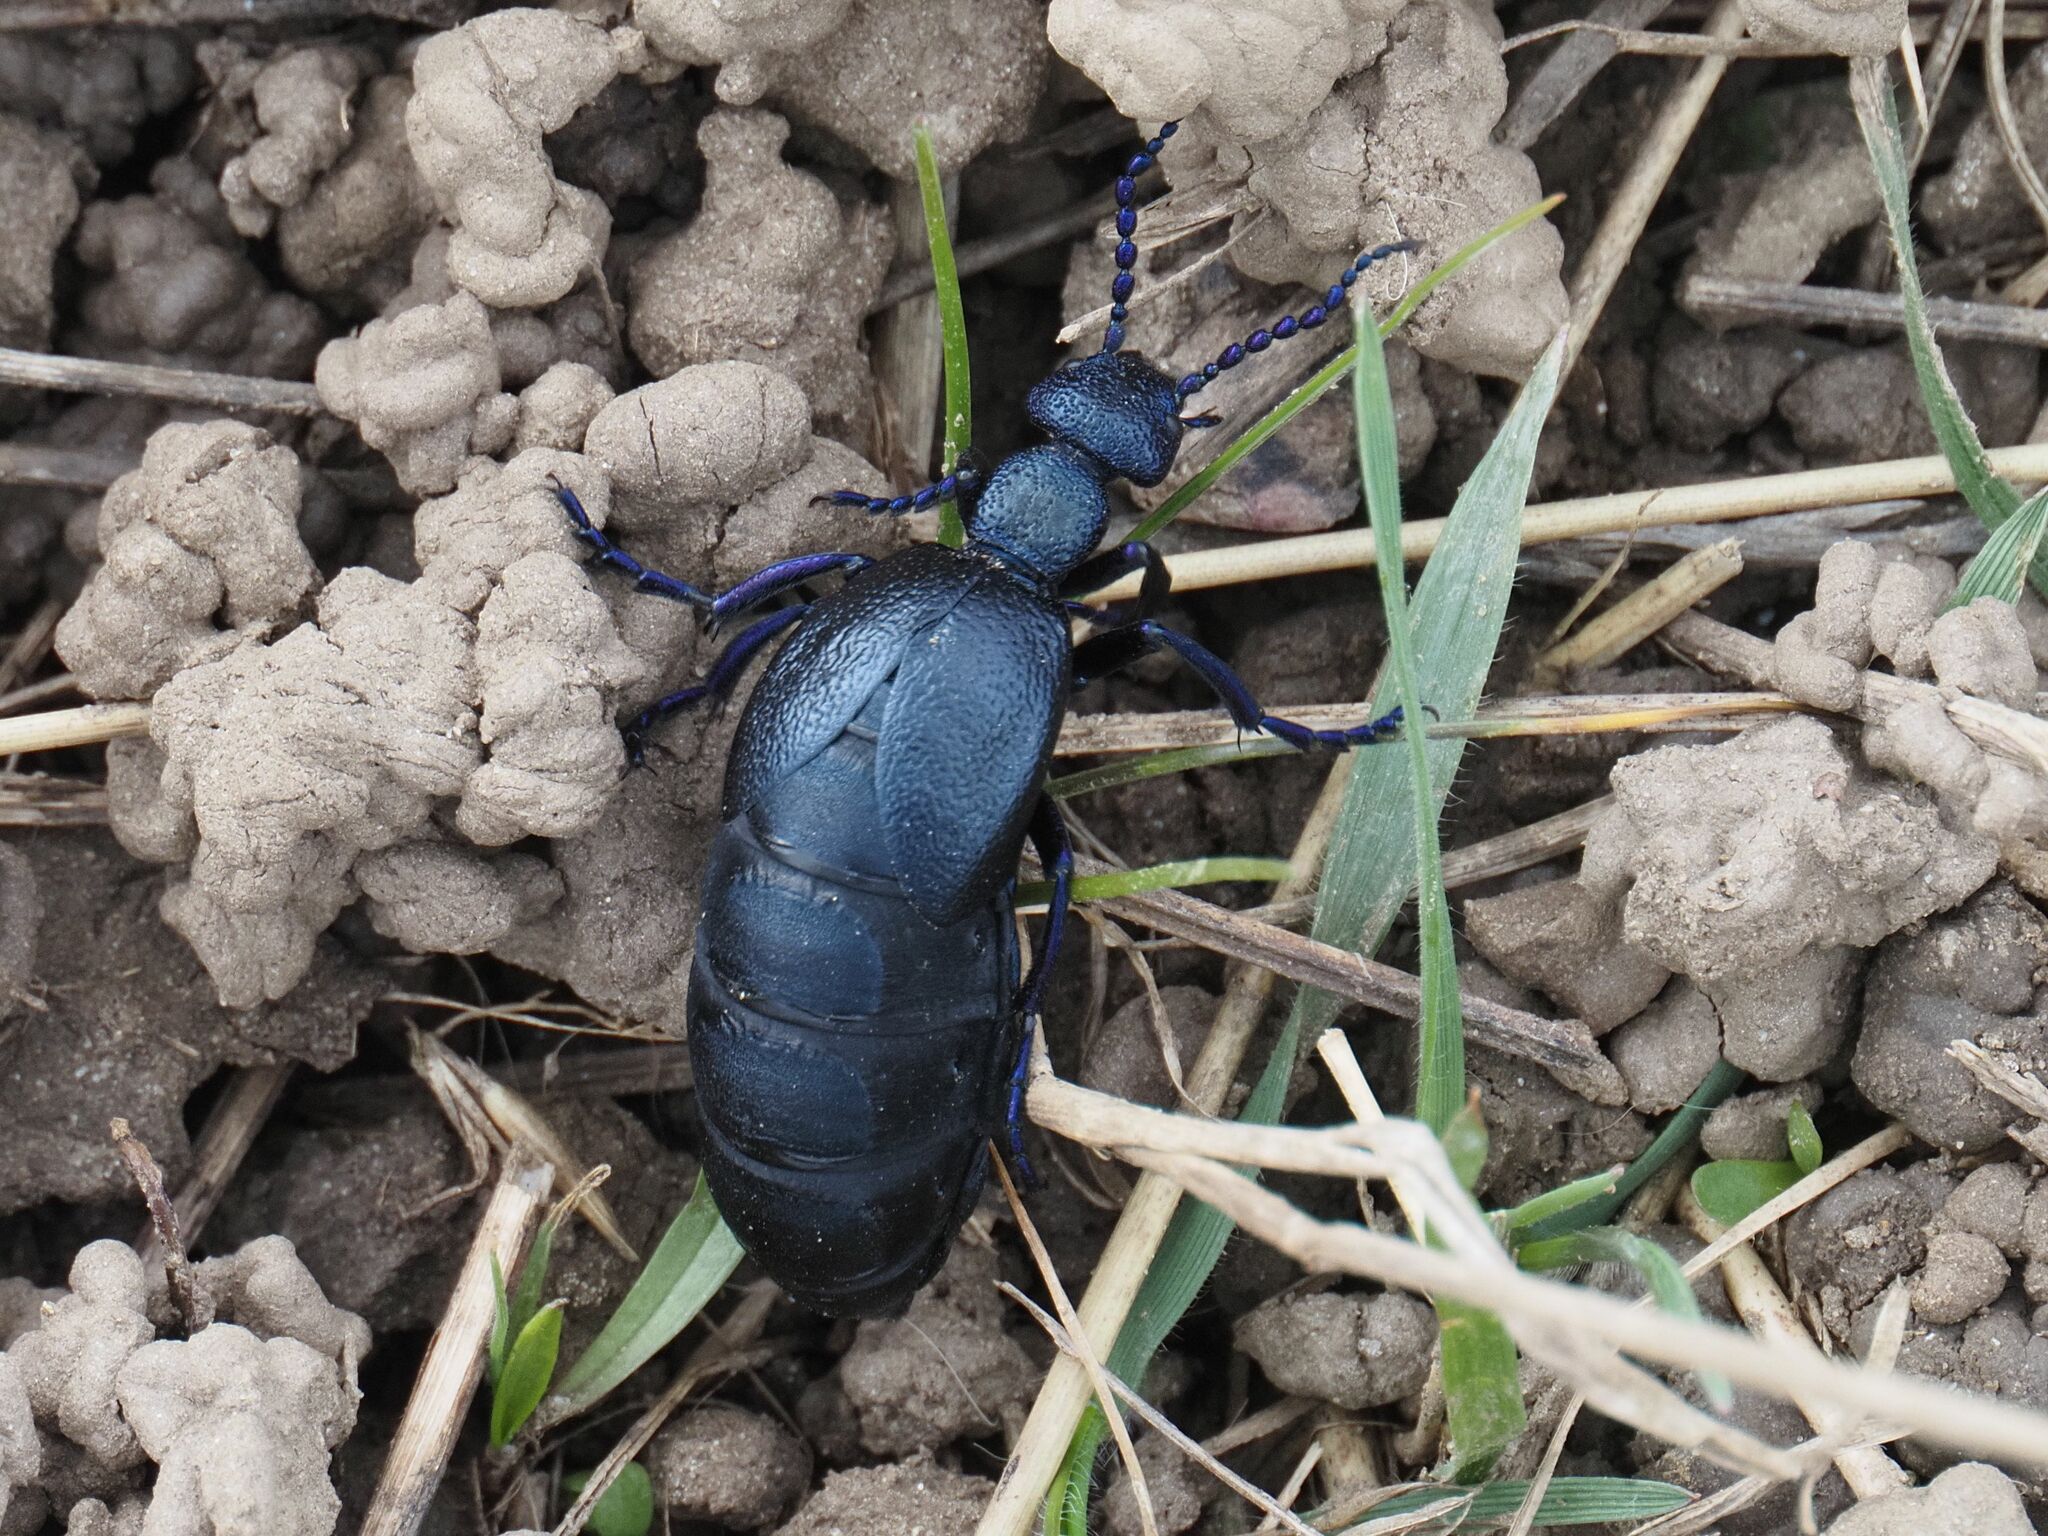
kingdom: Animalia
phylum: Arthropoda
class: Insecta
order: Coleoptera
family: Meloidae
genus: Meloe
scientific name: Meloe proscarabaeus
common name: Black oil-beetle
